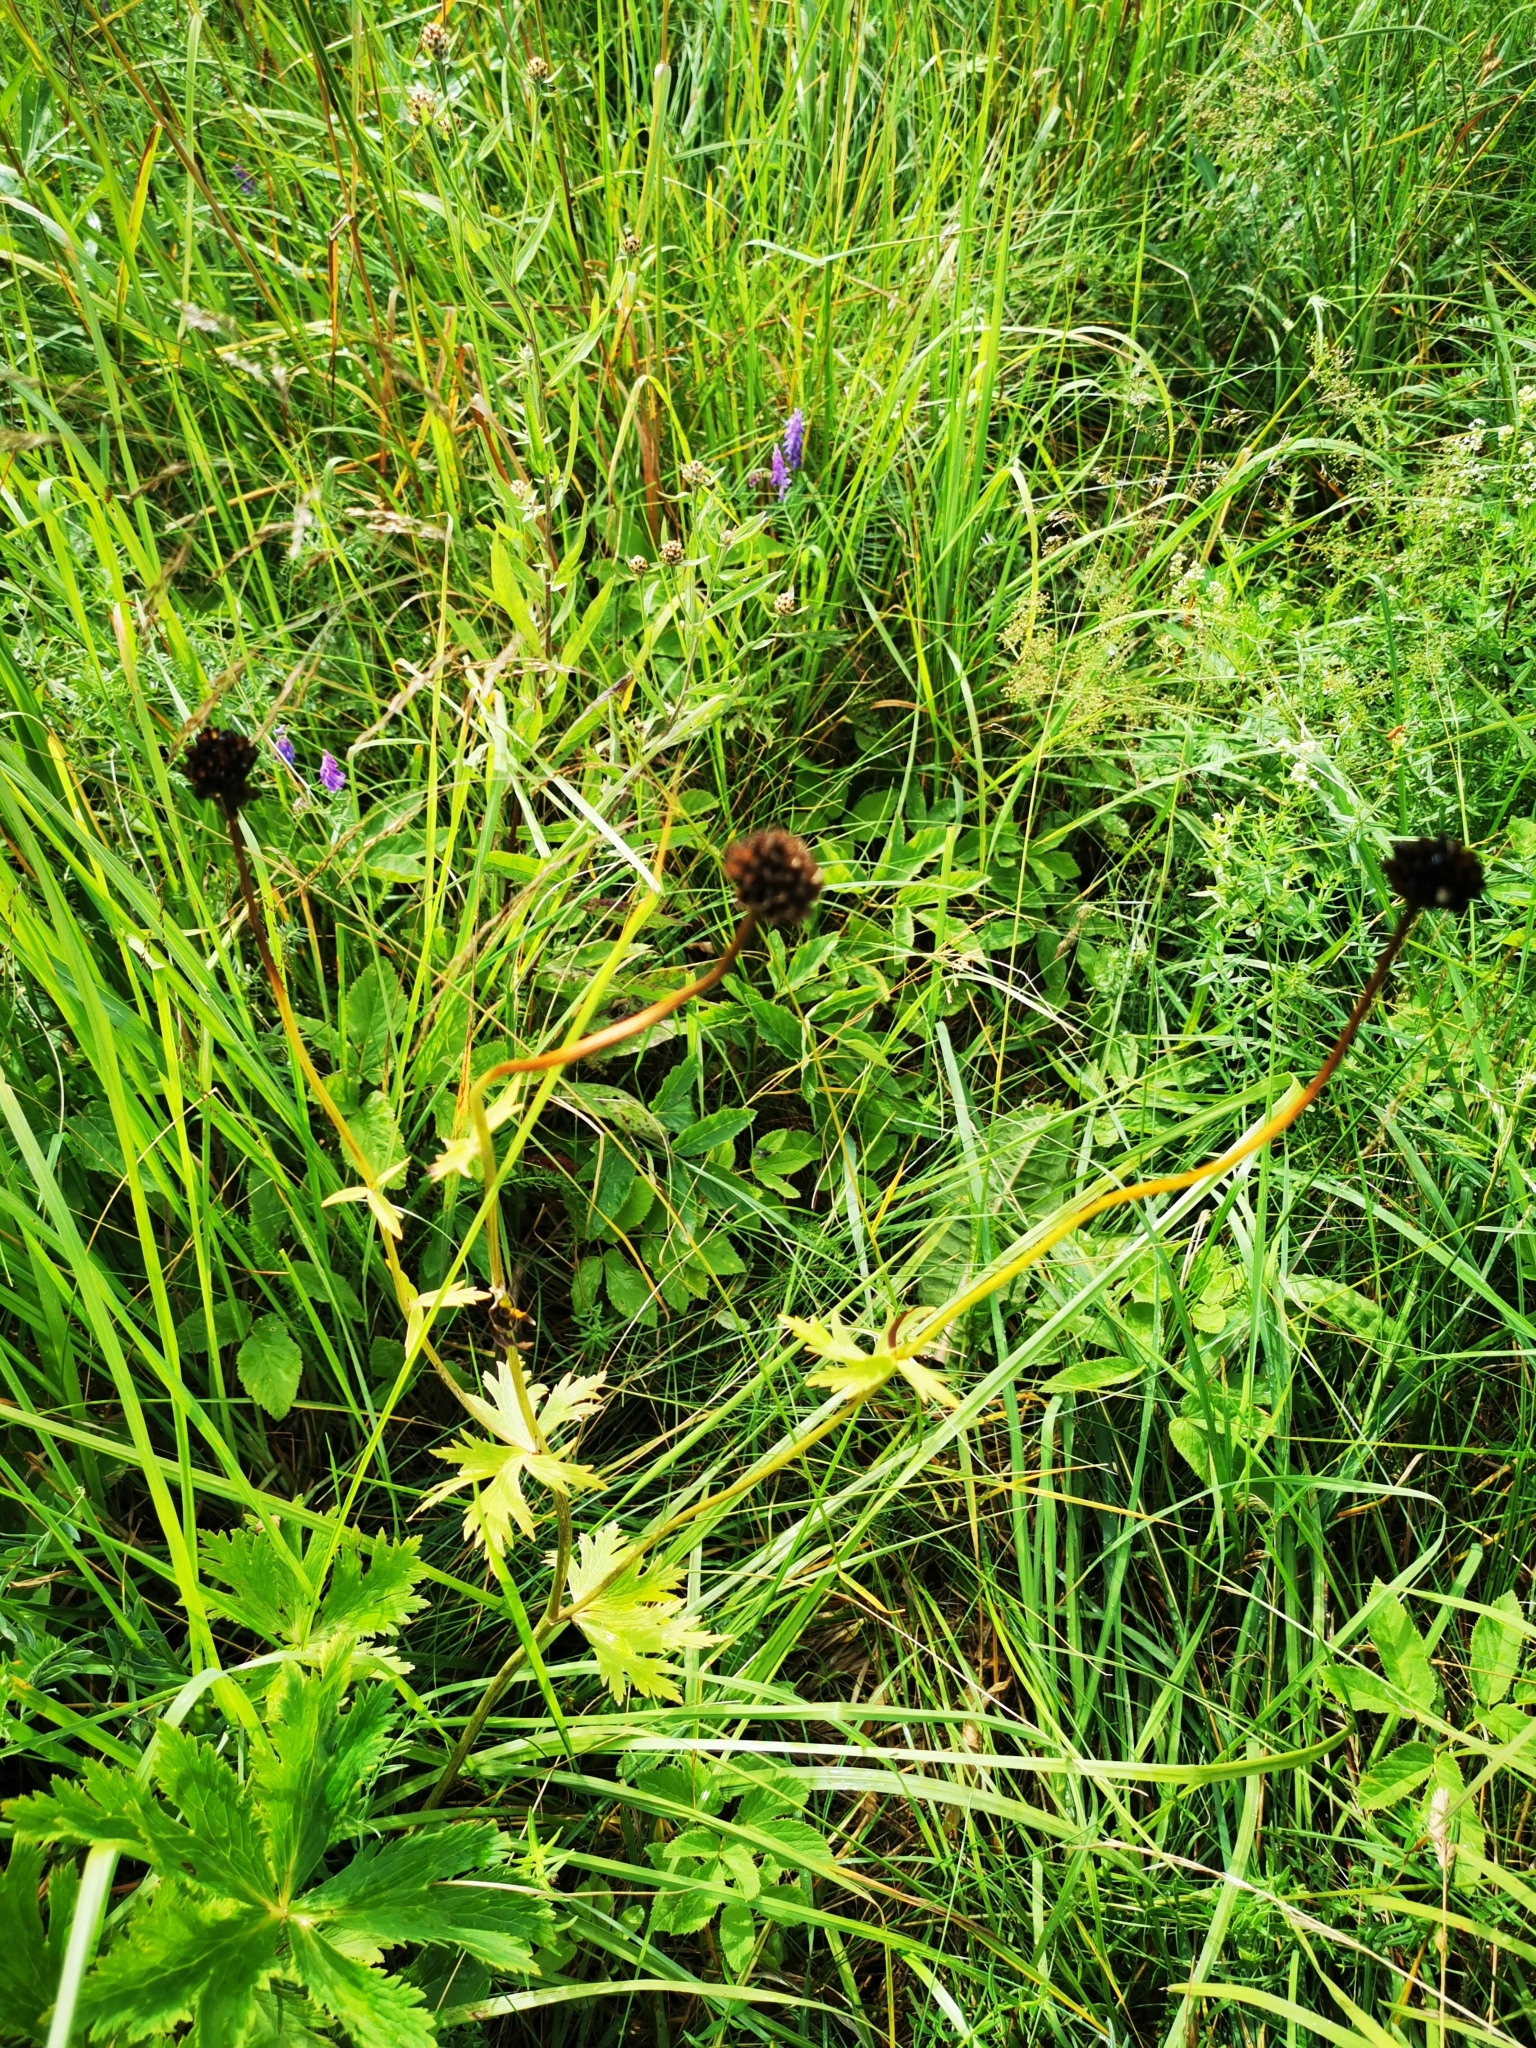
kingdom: Plantae
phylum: Tracheophyta
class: Magnoliopsida
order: Ranunculales
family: Ranunculaceae
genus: Trollius
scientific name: Trollius europaeus
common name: European globeflower
